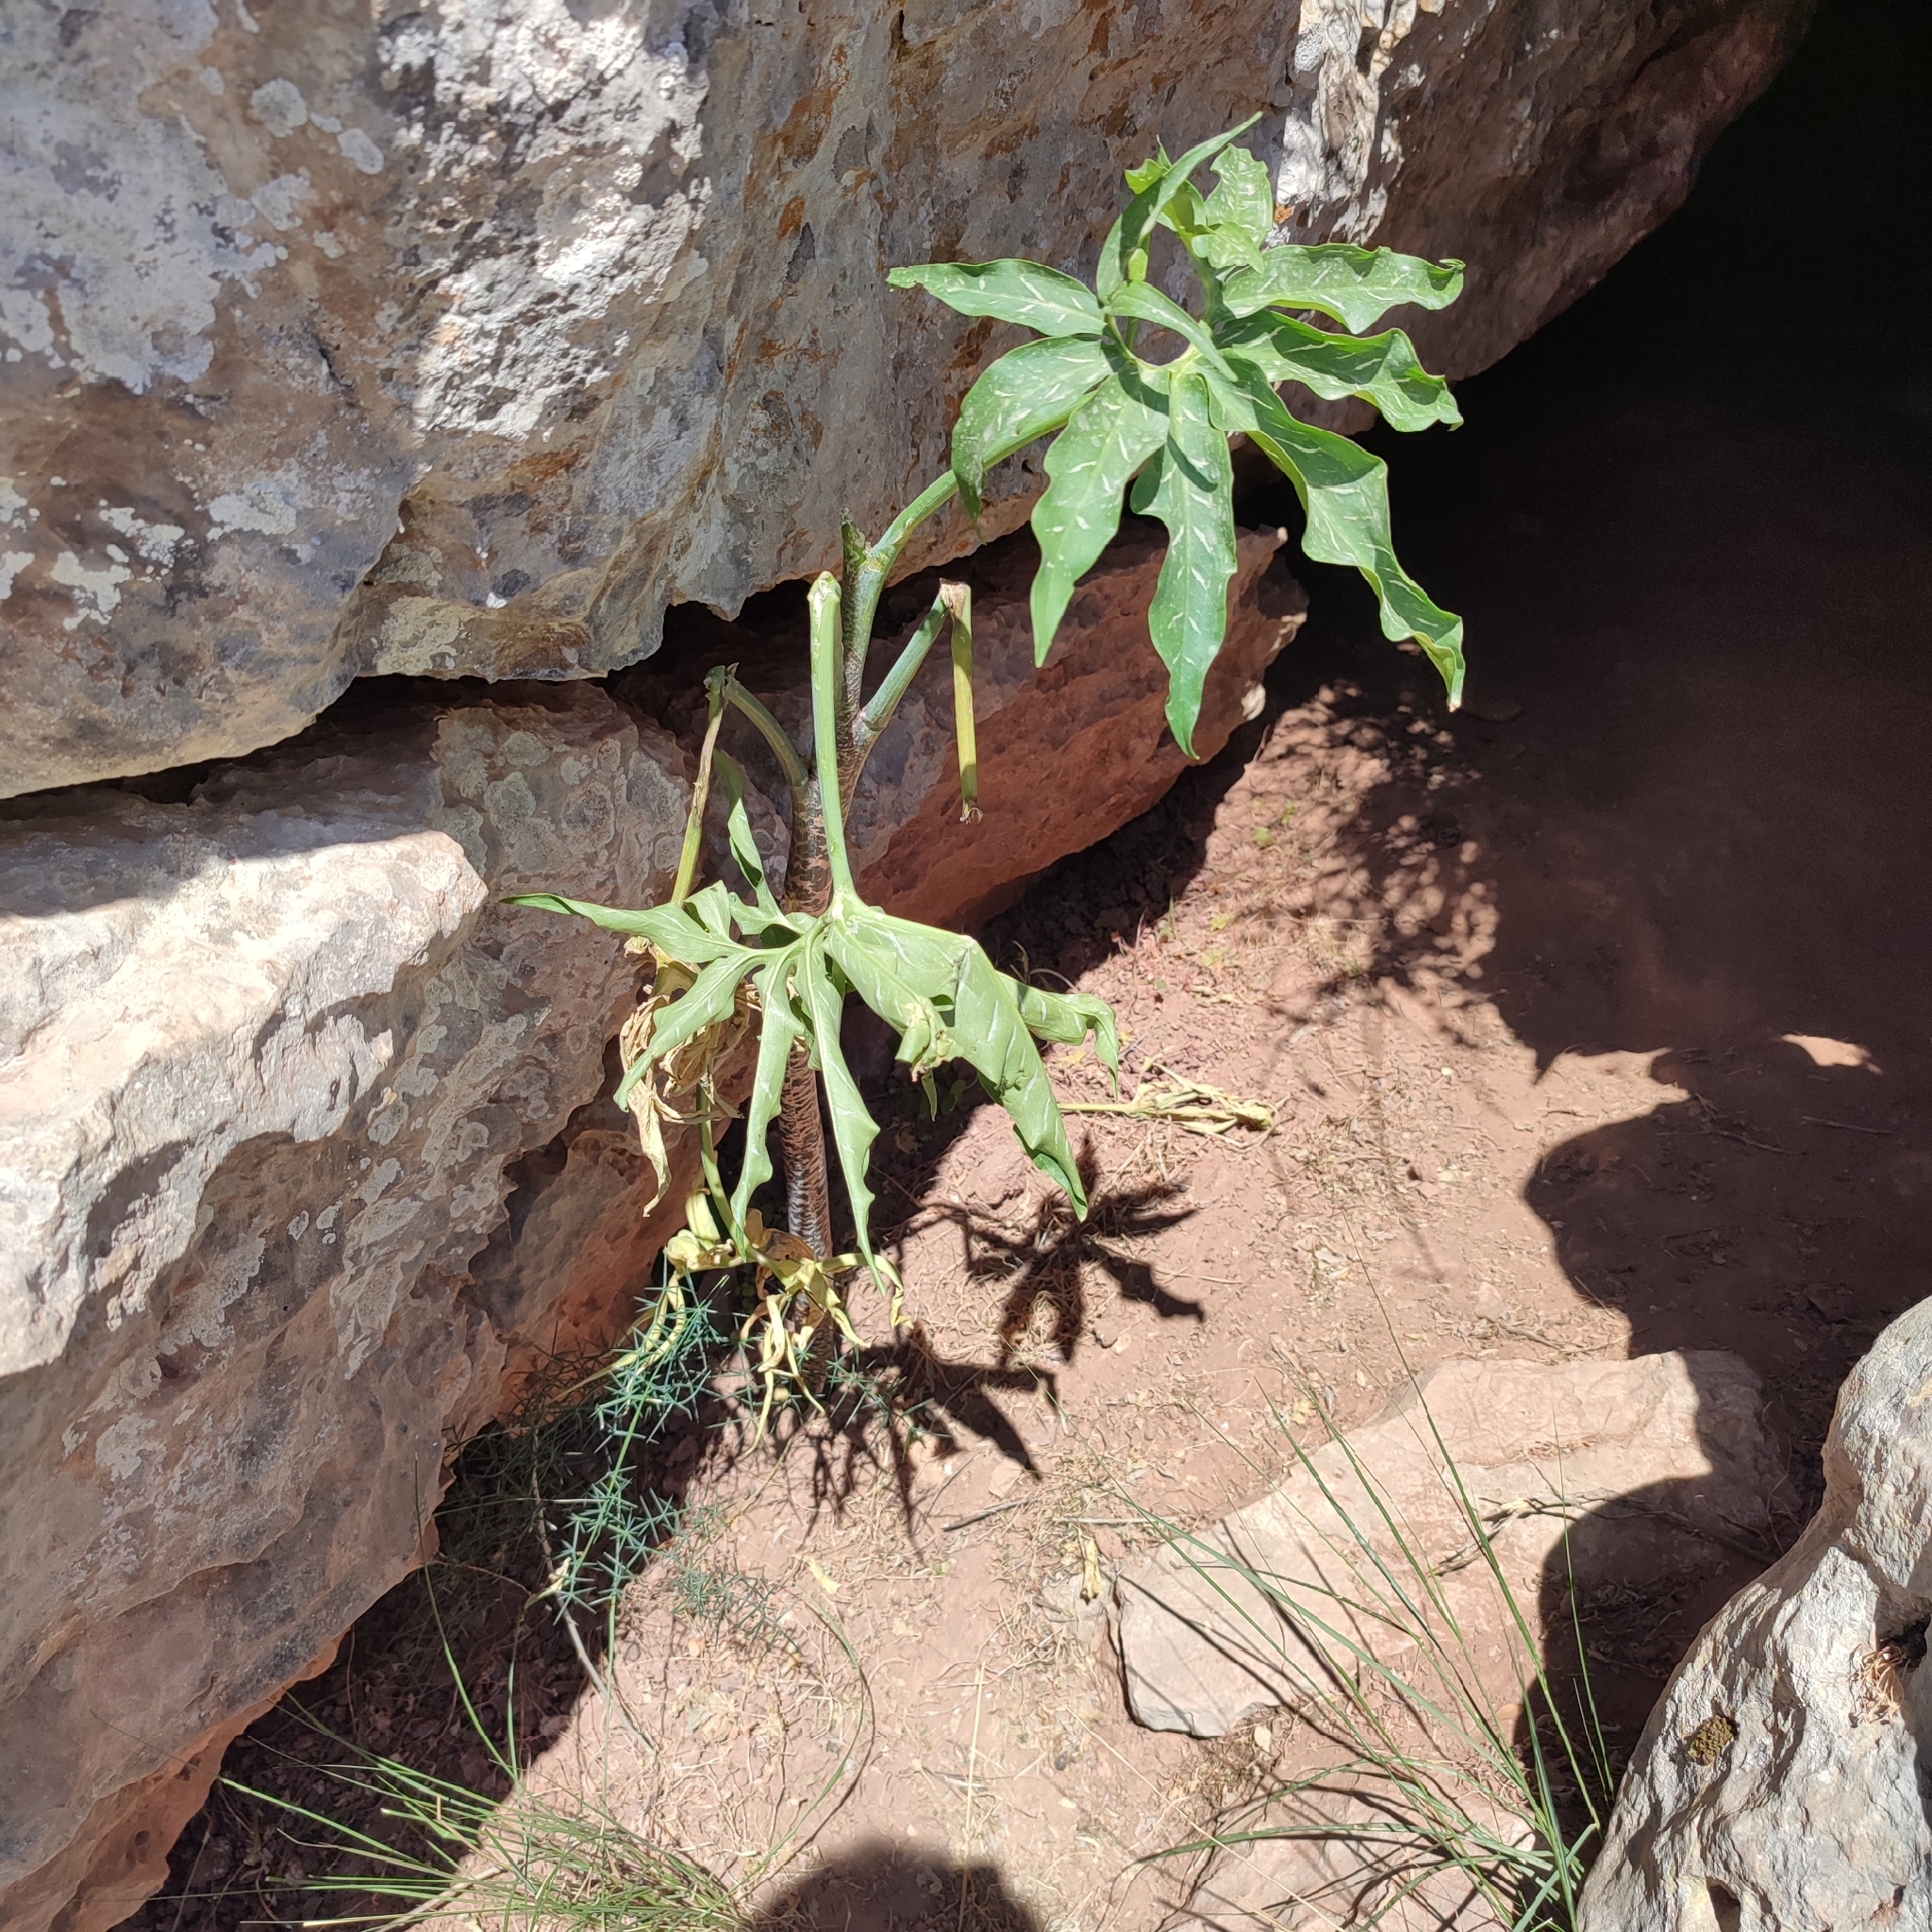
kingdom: Plantae
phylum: Tracheophyta
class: Liliopsida
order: Alismatales
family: Araceae
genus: Dracunculus
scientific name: Dracunculus vulgaris
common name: Dragon arum
